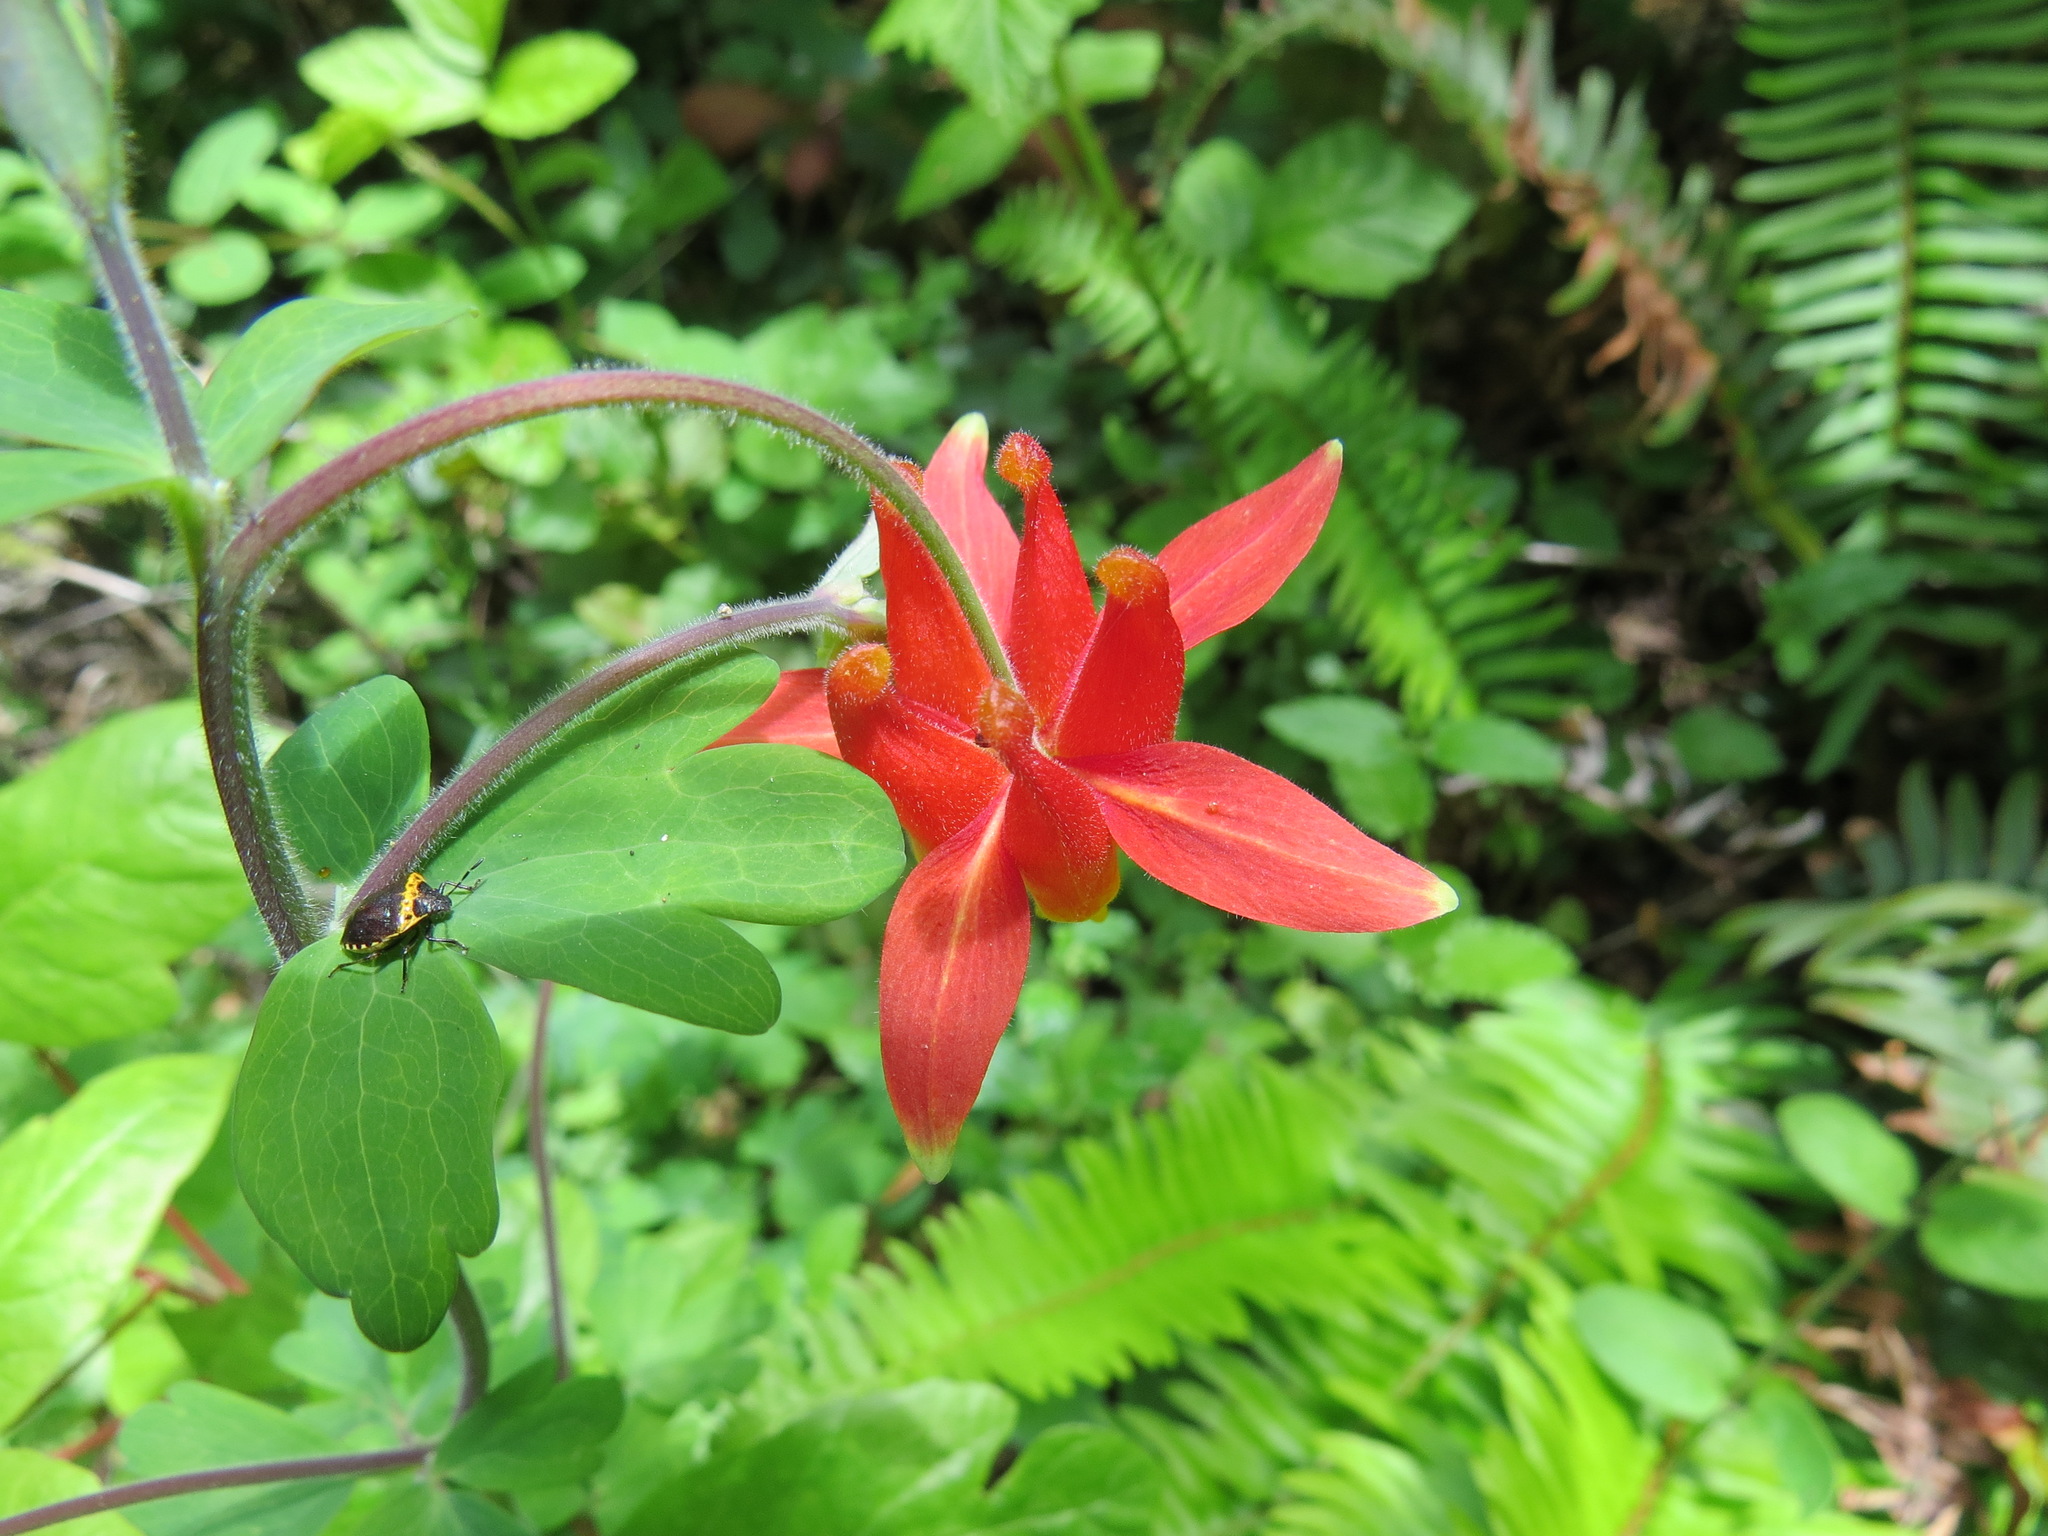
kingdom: Plantae
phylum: Tracheophyta
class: Magnoliopsida
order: Ranunculales
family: Ranunculaceae
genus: Aquilegia
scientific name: Aquilegia formosa
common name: Sitka columbine
